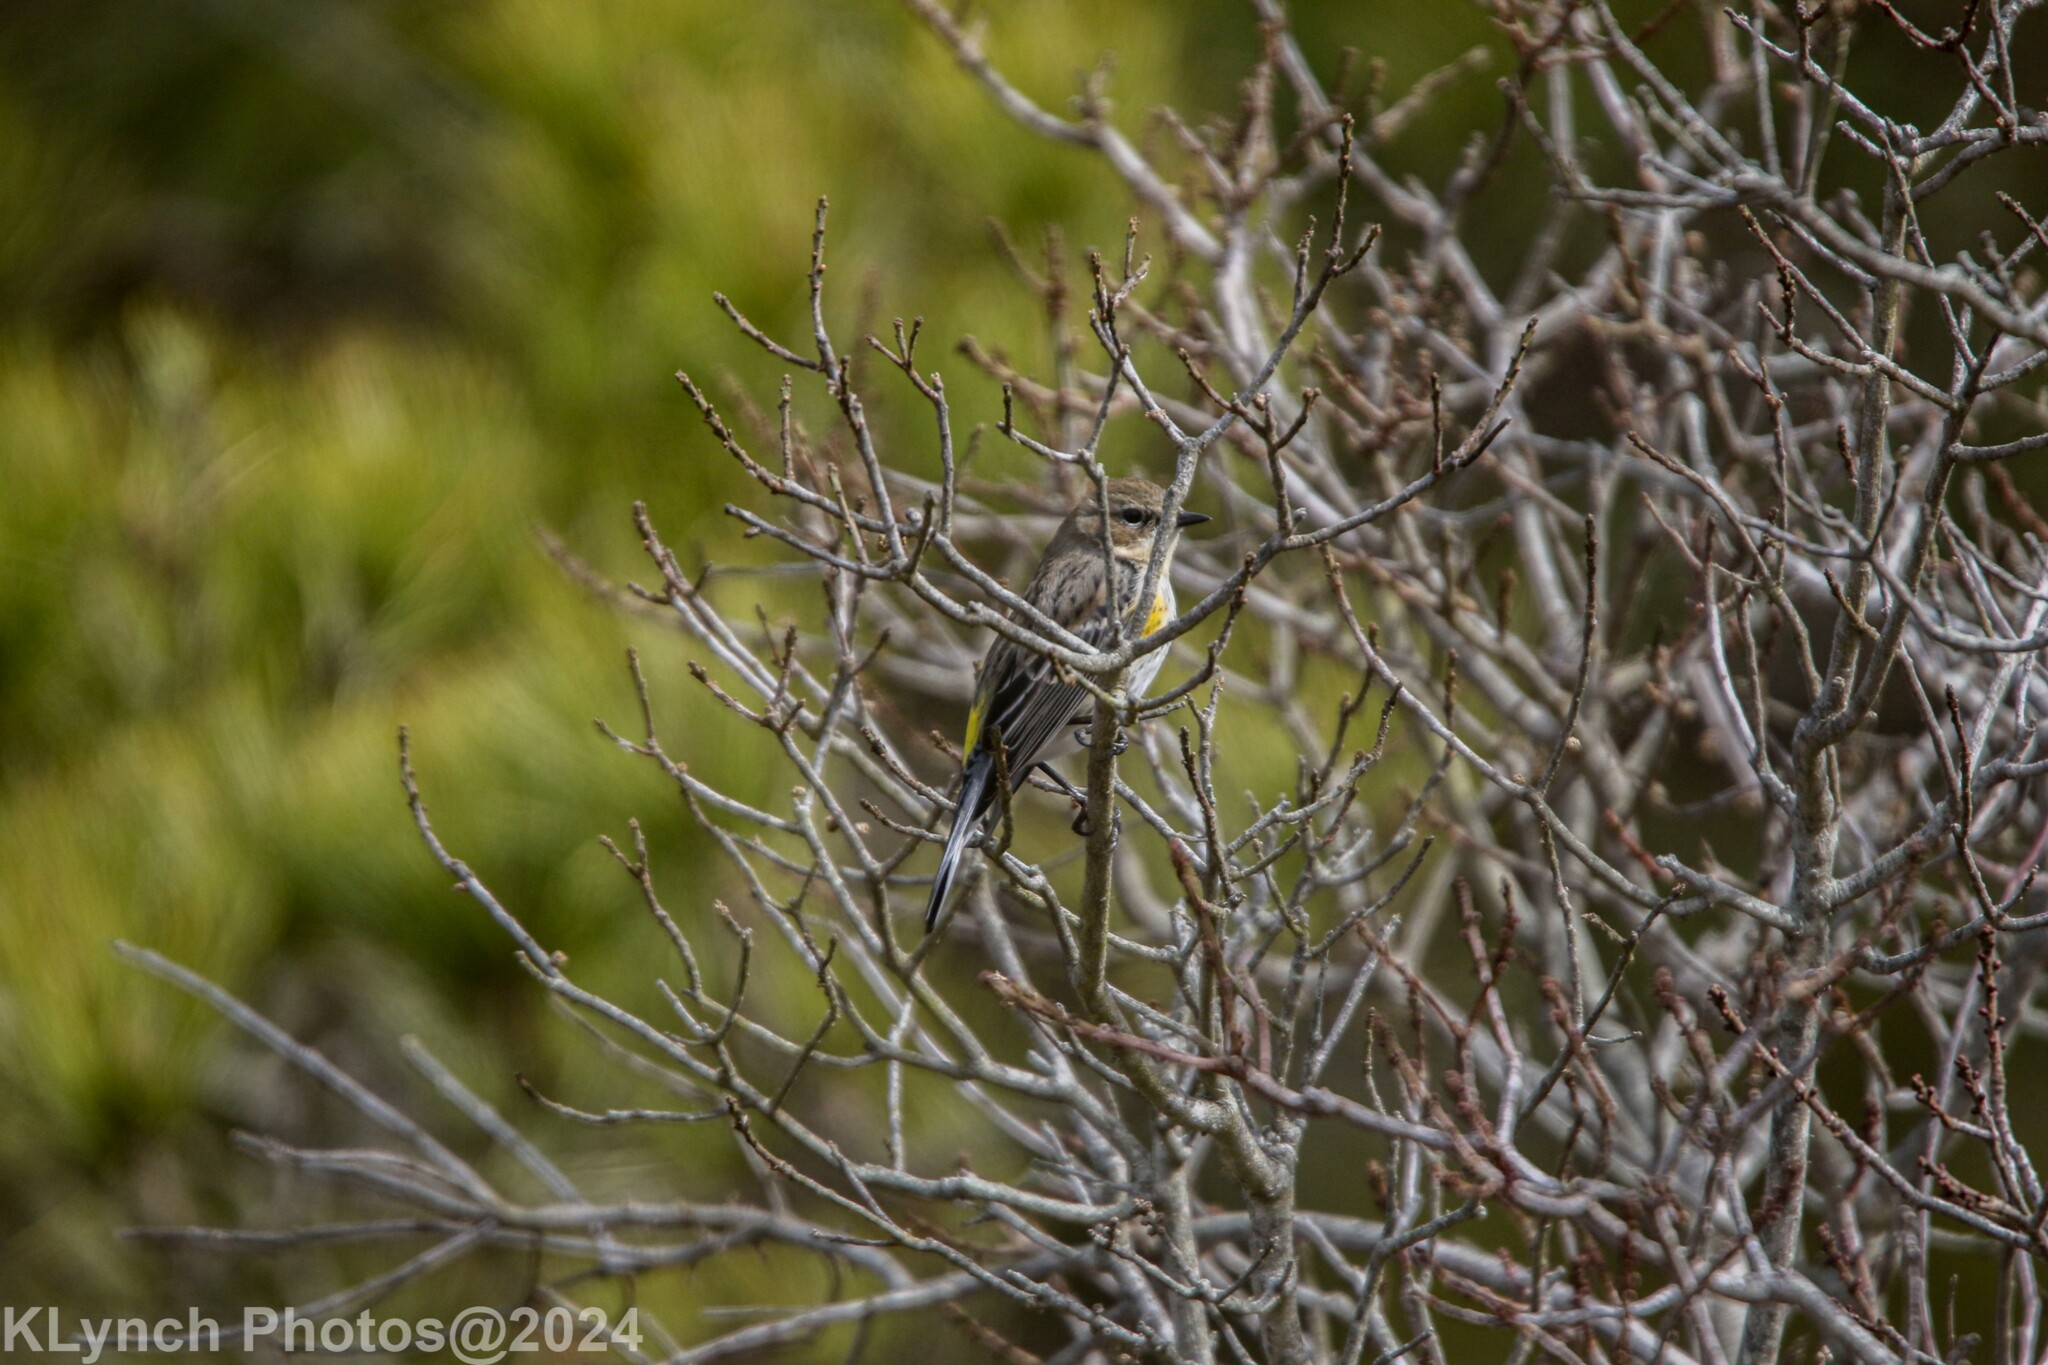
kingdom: Animalia
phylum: Chordata
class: Aves
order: Passeriformes
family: Parulidae
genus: Setophaga
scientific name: Setophaga coronata
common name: Myrtle warbler
